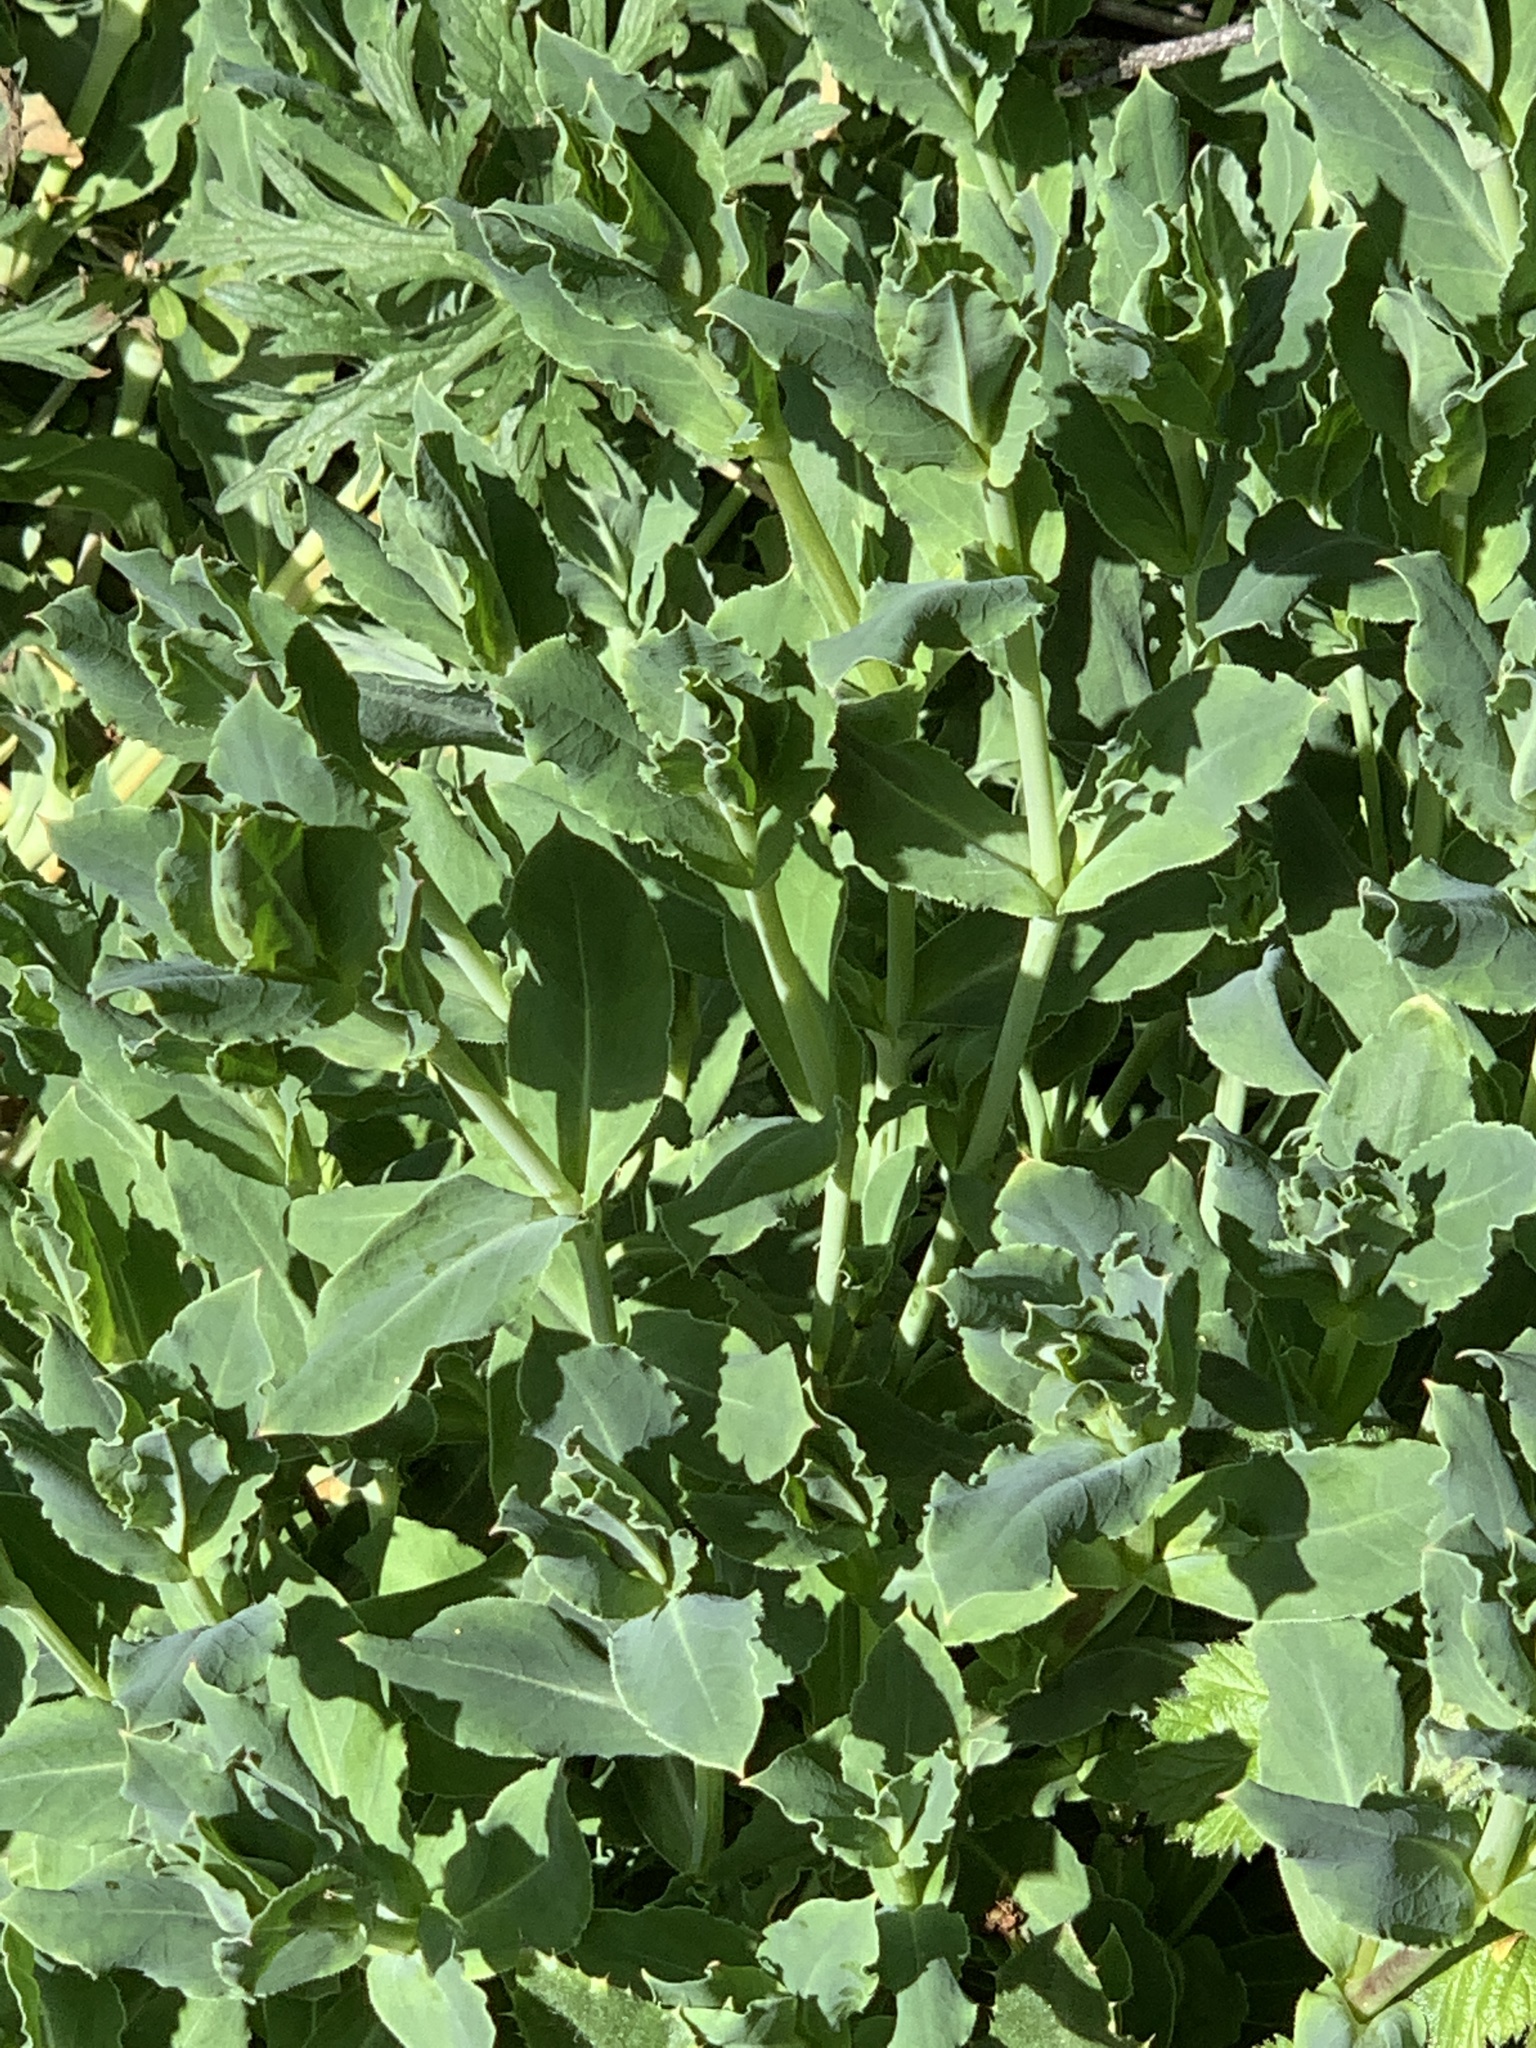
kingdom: Plantae
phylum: Tracheophyta
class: Magnoliopsida
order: Caryophyllales
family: Caryophyllaceae
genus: Silene
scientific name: Silene vulgaris
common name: Bladder campion
